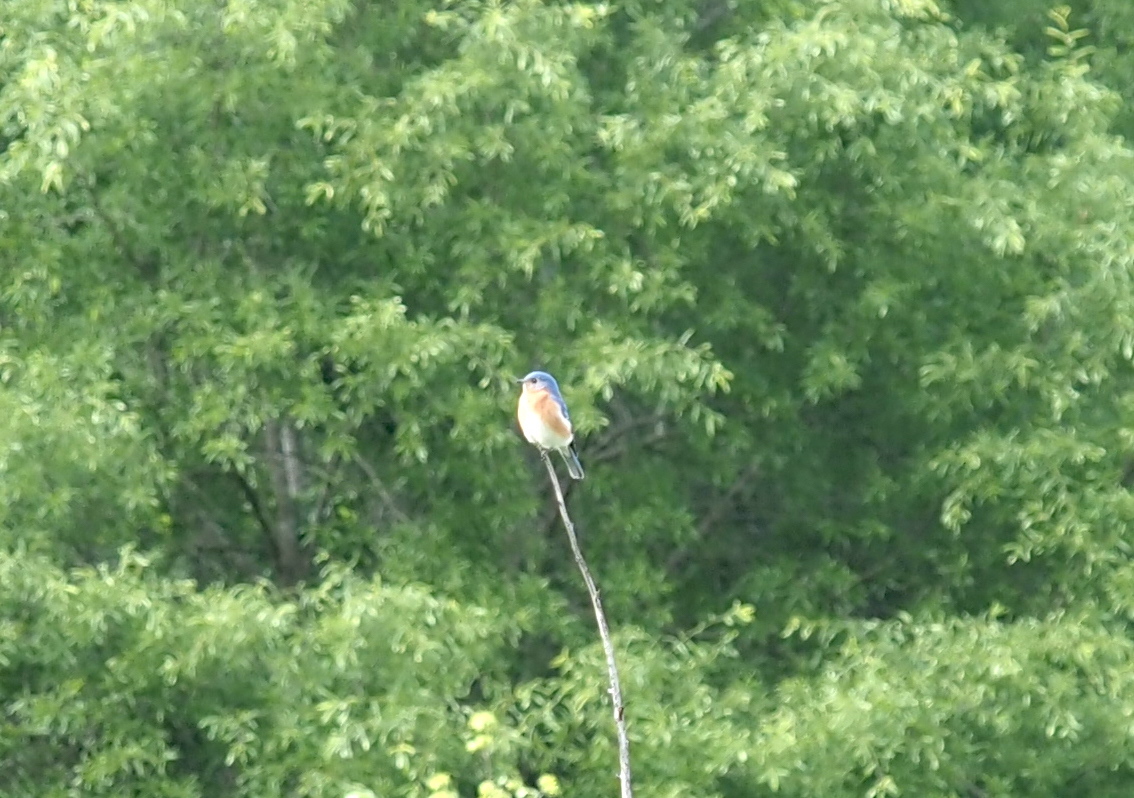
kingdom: Animalia
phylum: Chordata
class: Aves
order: Passeriformes
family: Turdidae
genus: Sialia
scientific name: Sialia sialis
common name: Eastern bluebird
